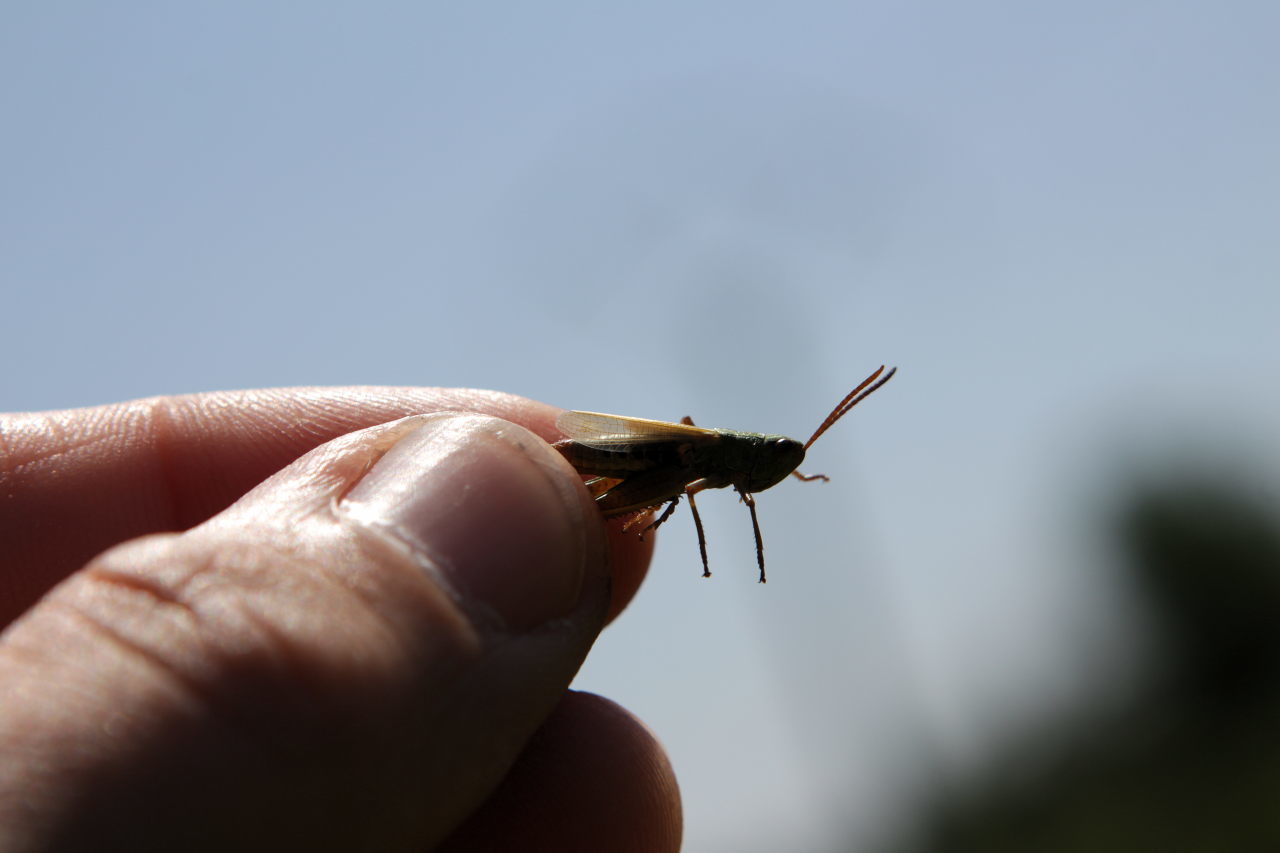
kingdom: Animalia
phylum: Arthropoda
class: Insecta
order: Orthoptera
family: Acrididae
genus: Pseudochorthippus
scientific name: Pseudochorthippus parallelus
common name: Meadow grasshopper
